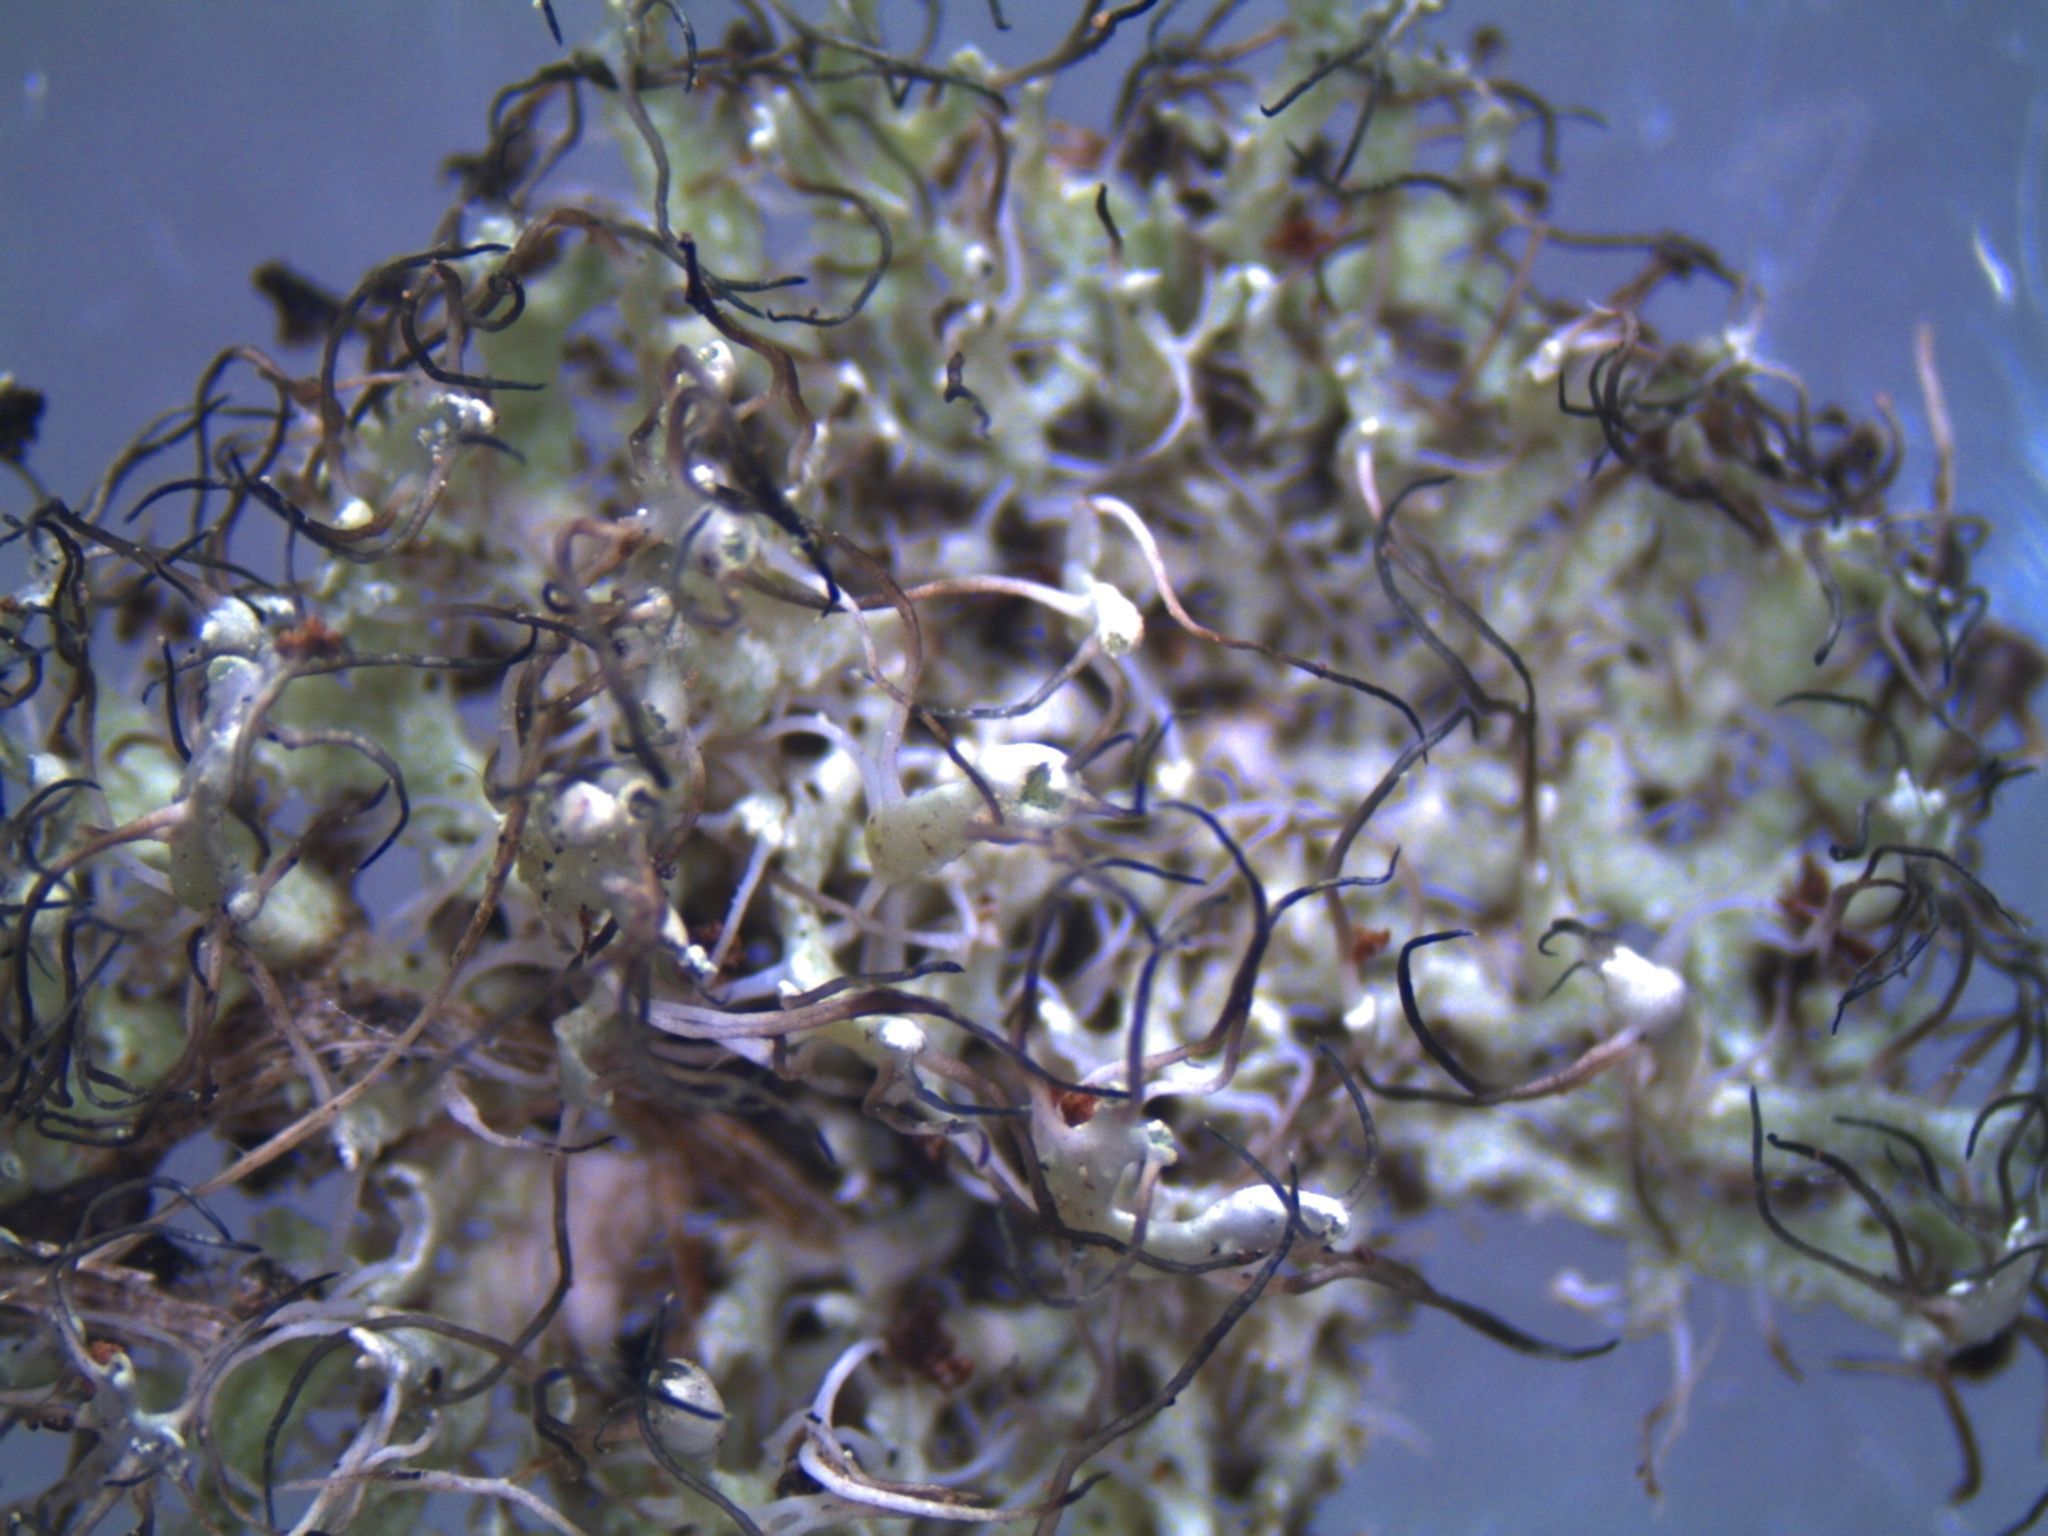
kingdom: Fungi
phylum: Ascomycota
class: Lecanoromycetes
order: Caliciales
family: Physciaceae
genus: Physcia
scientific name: Physcia adscendens
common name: Hooded rosette lichen
